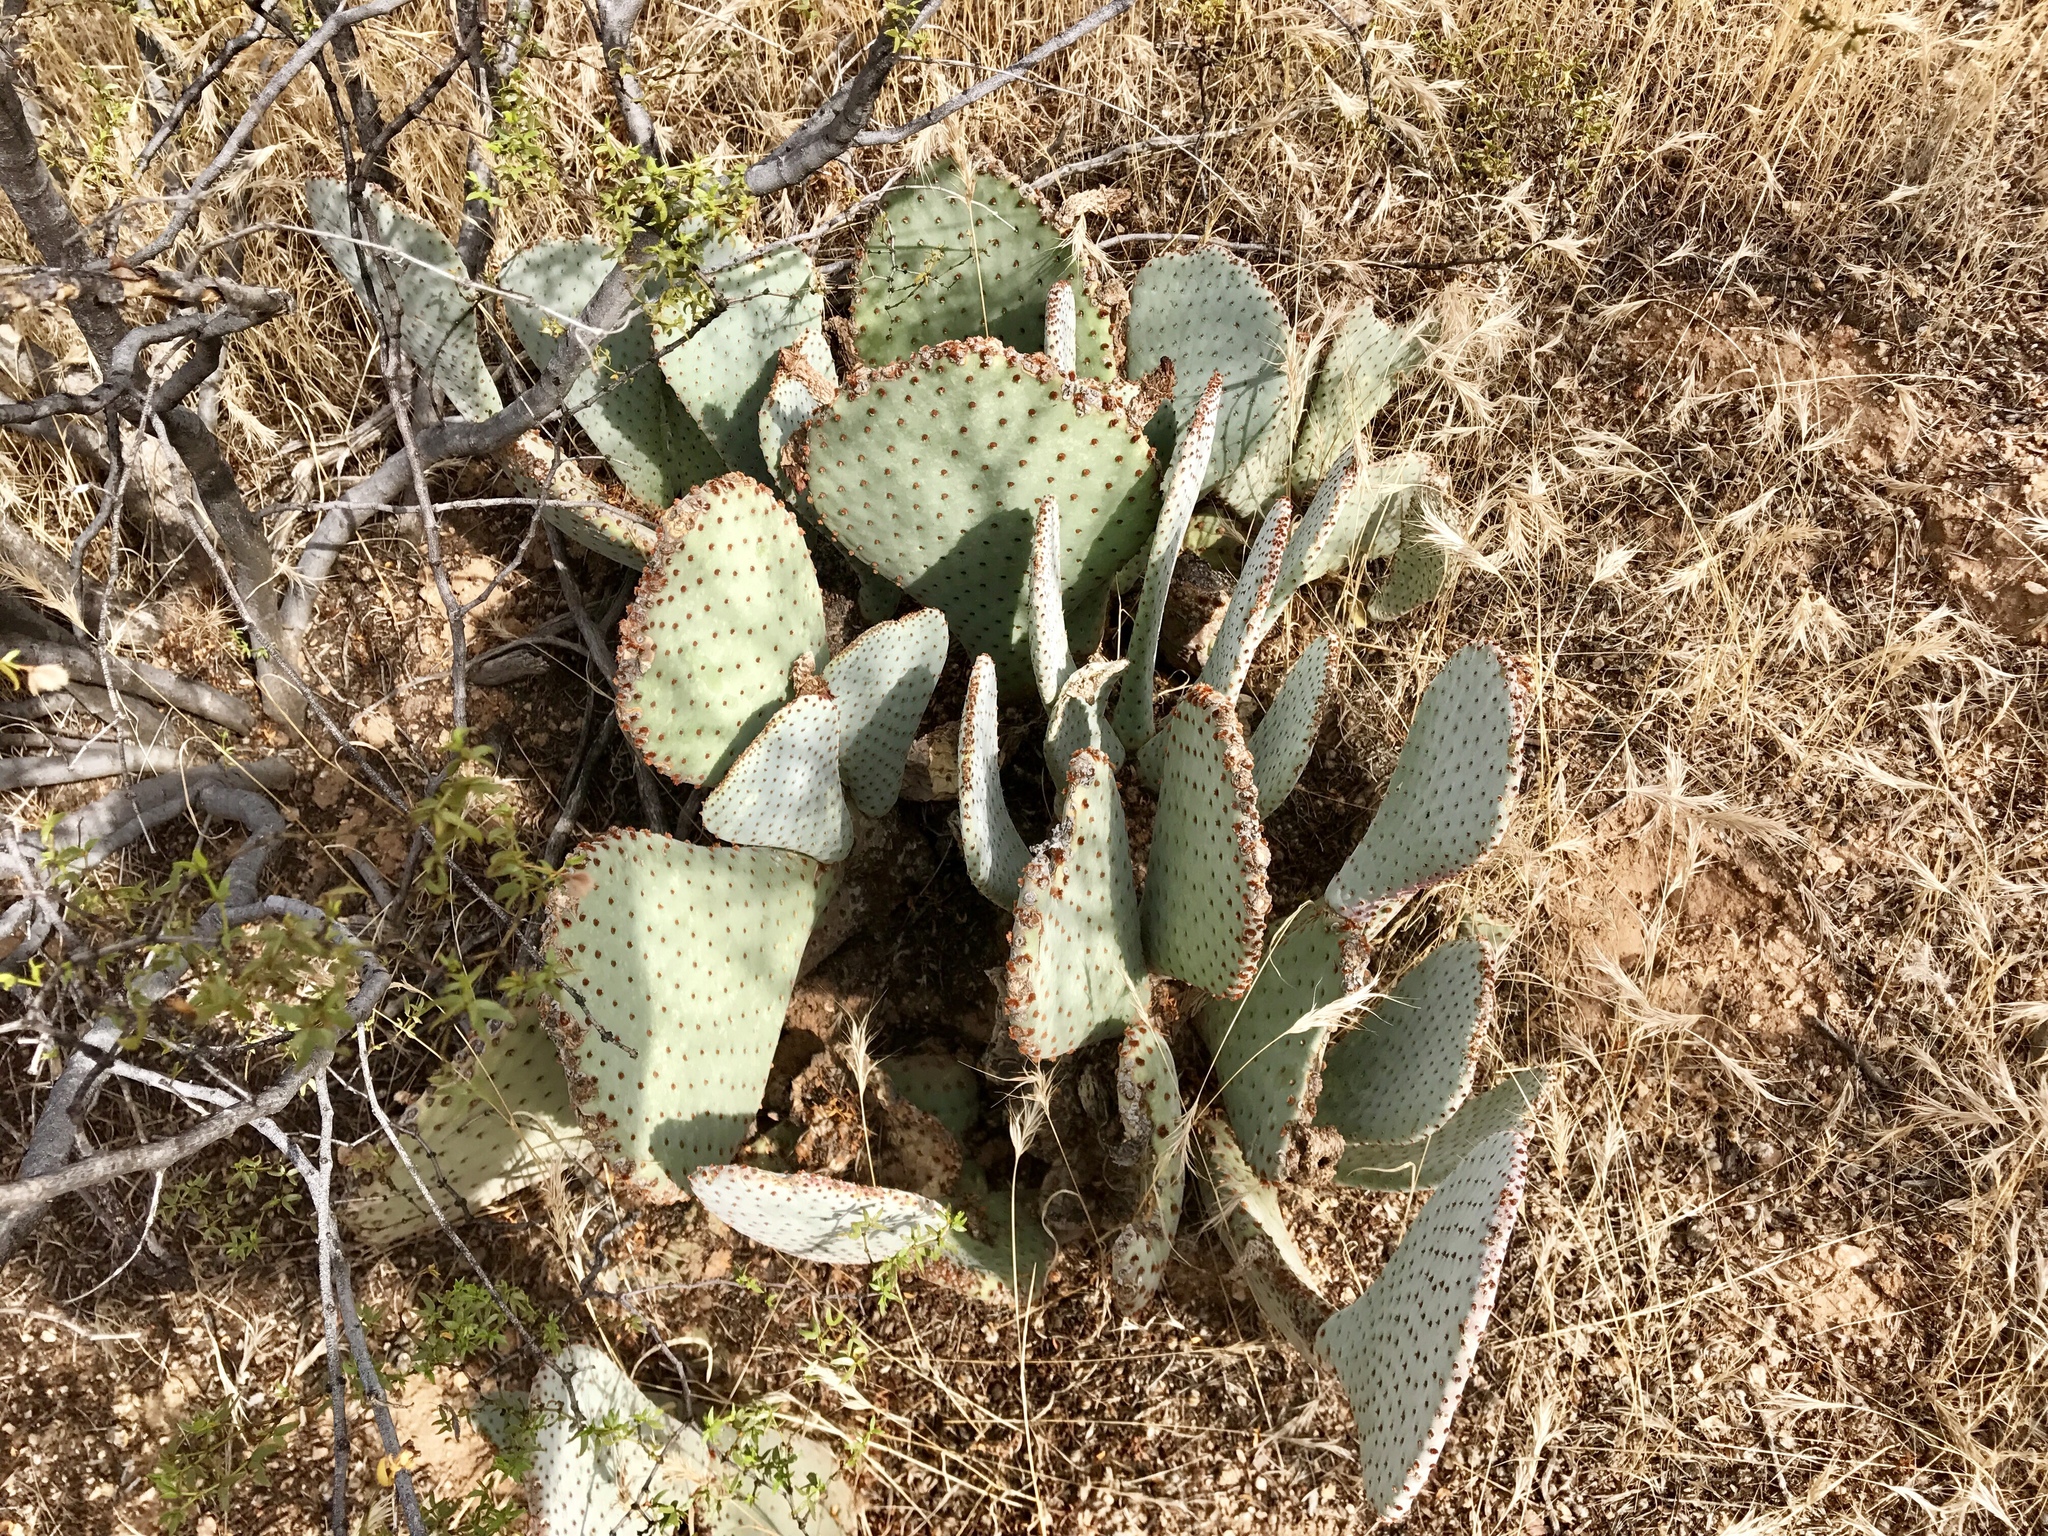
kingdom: Plantae
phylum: Tracheophyta
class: Magnoliopsida
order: Caryophyllales
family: Cactaceae
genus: Opuntia
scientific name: Opuntia basilaris
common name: Beavertail prickly-pear
